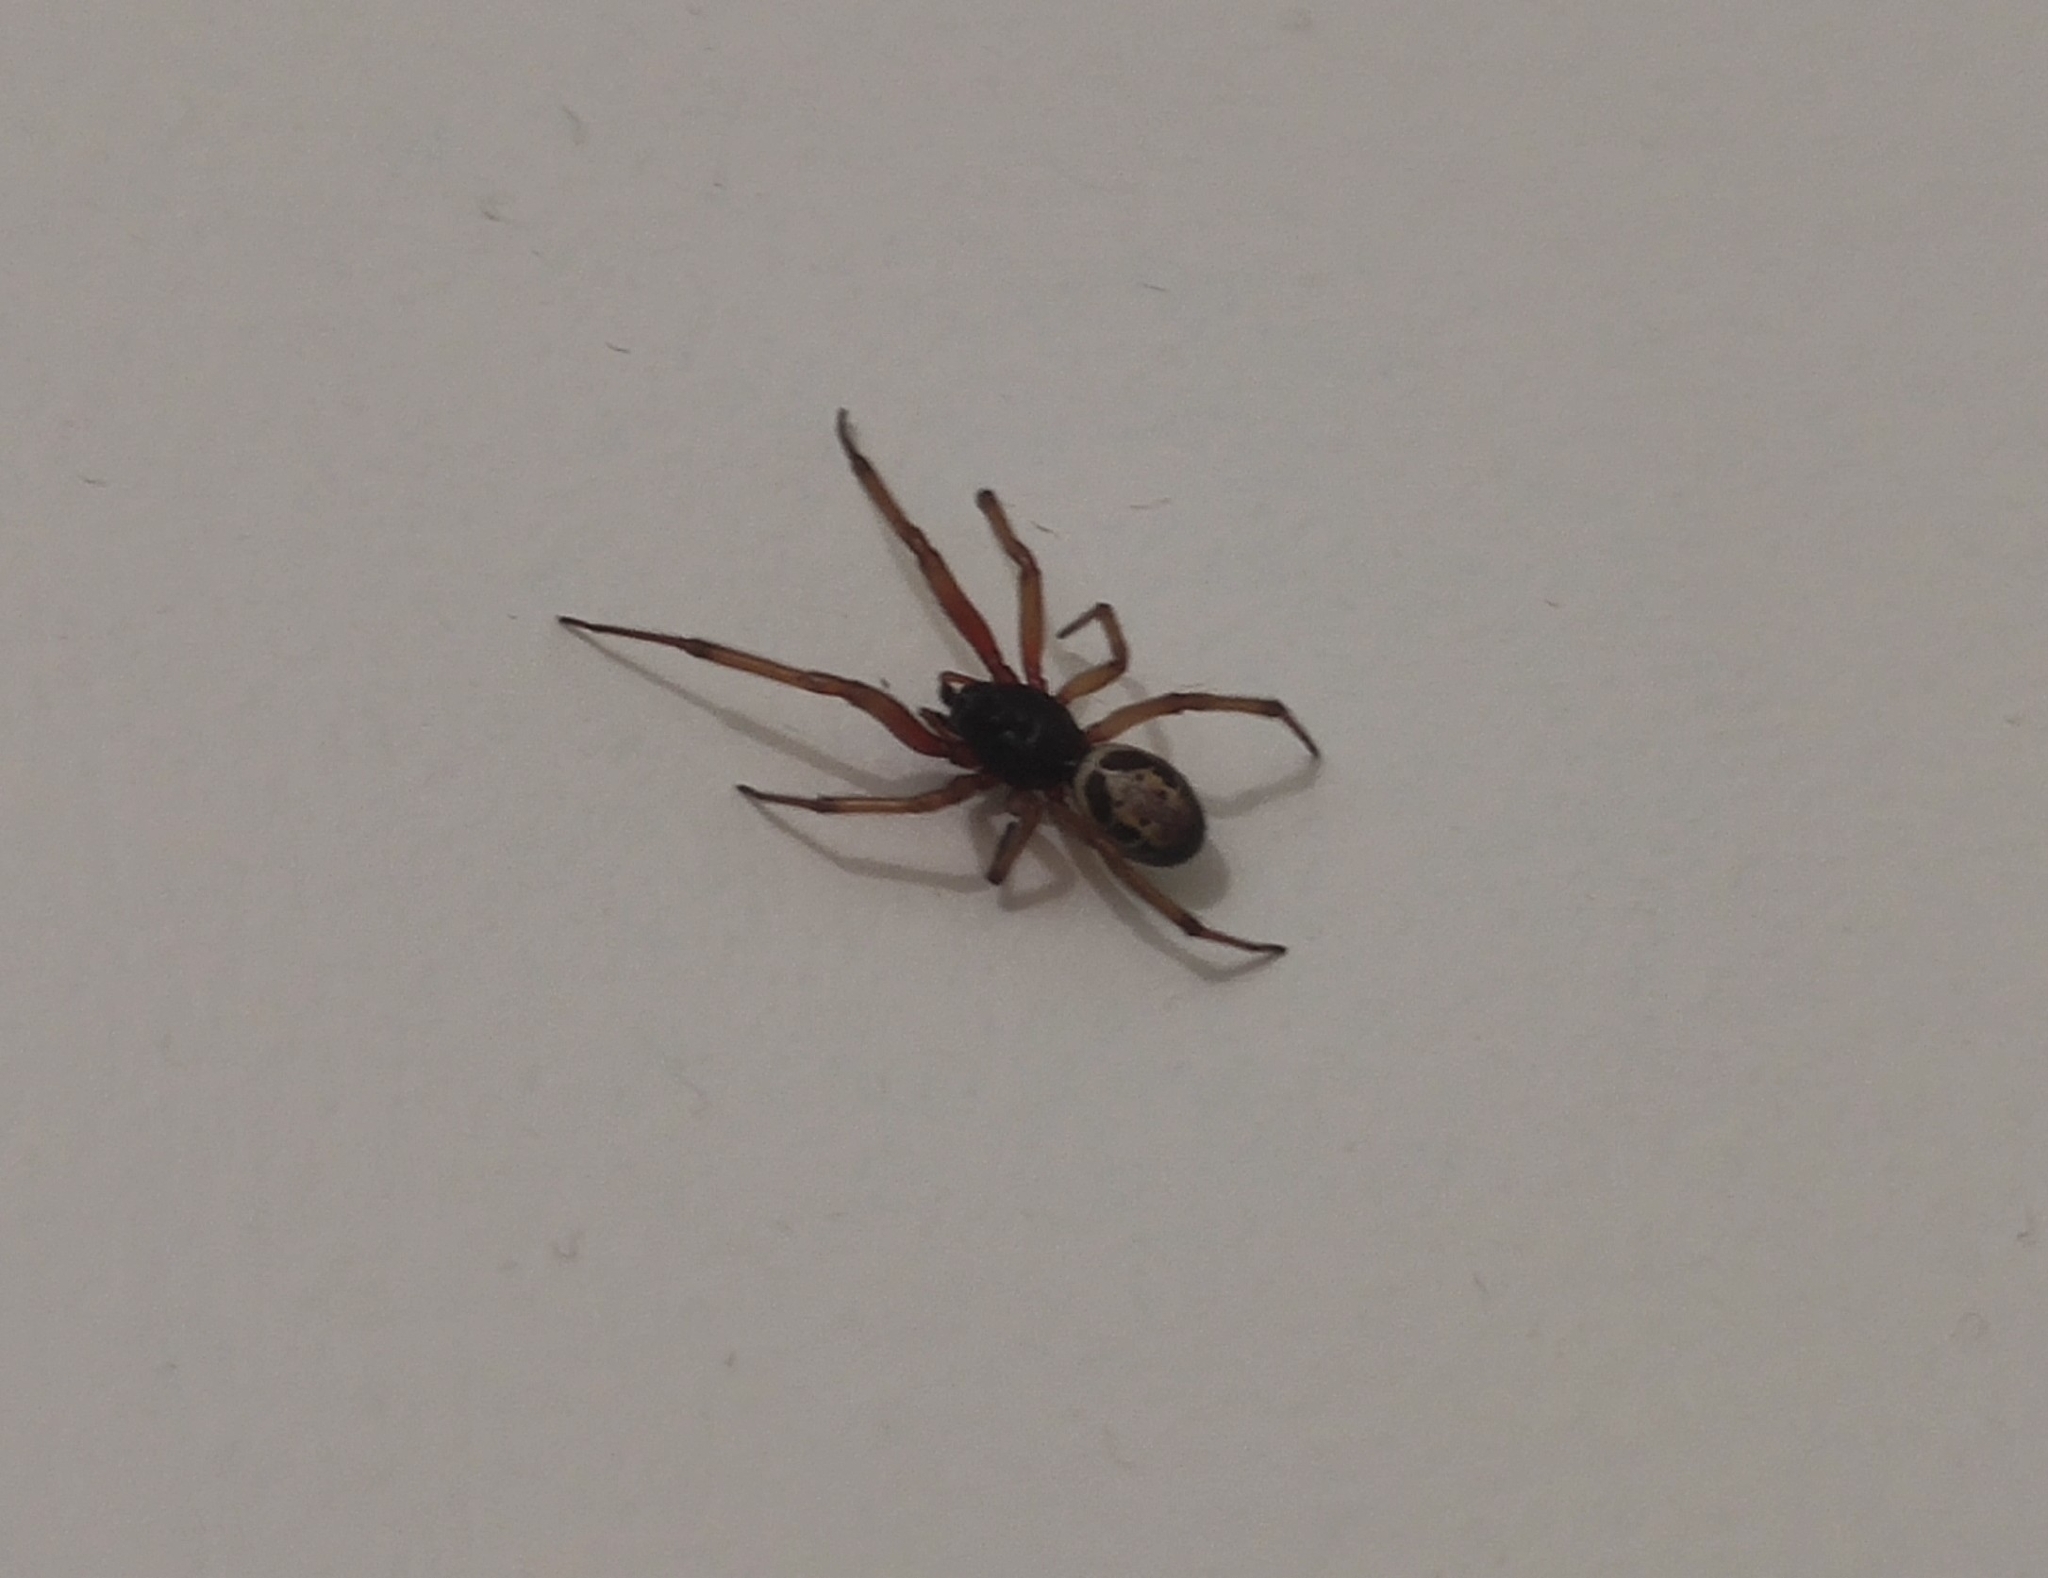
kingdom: Animalia
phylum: Arthropoda
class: Arachnida
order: Araneae
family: Theridiidae
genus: Steatoda
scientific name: Steatoda nobilis
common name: Cobweb weaver
